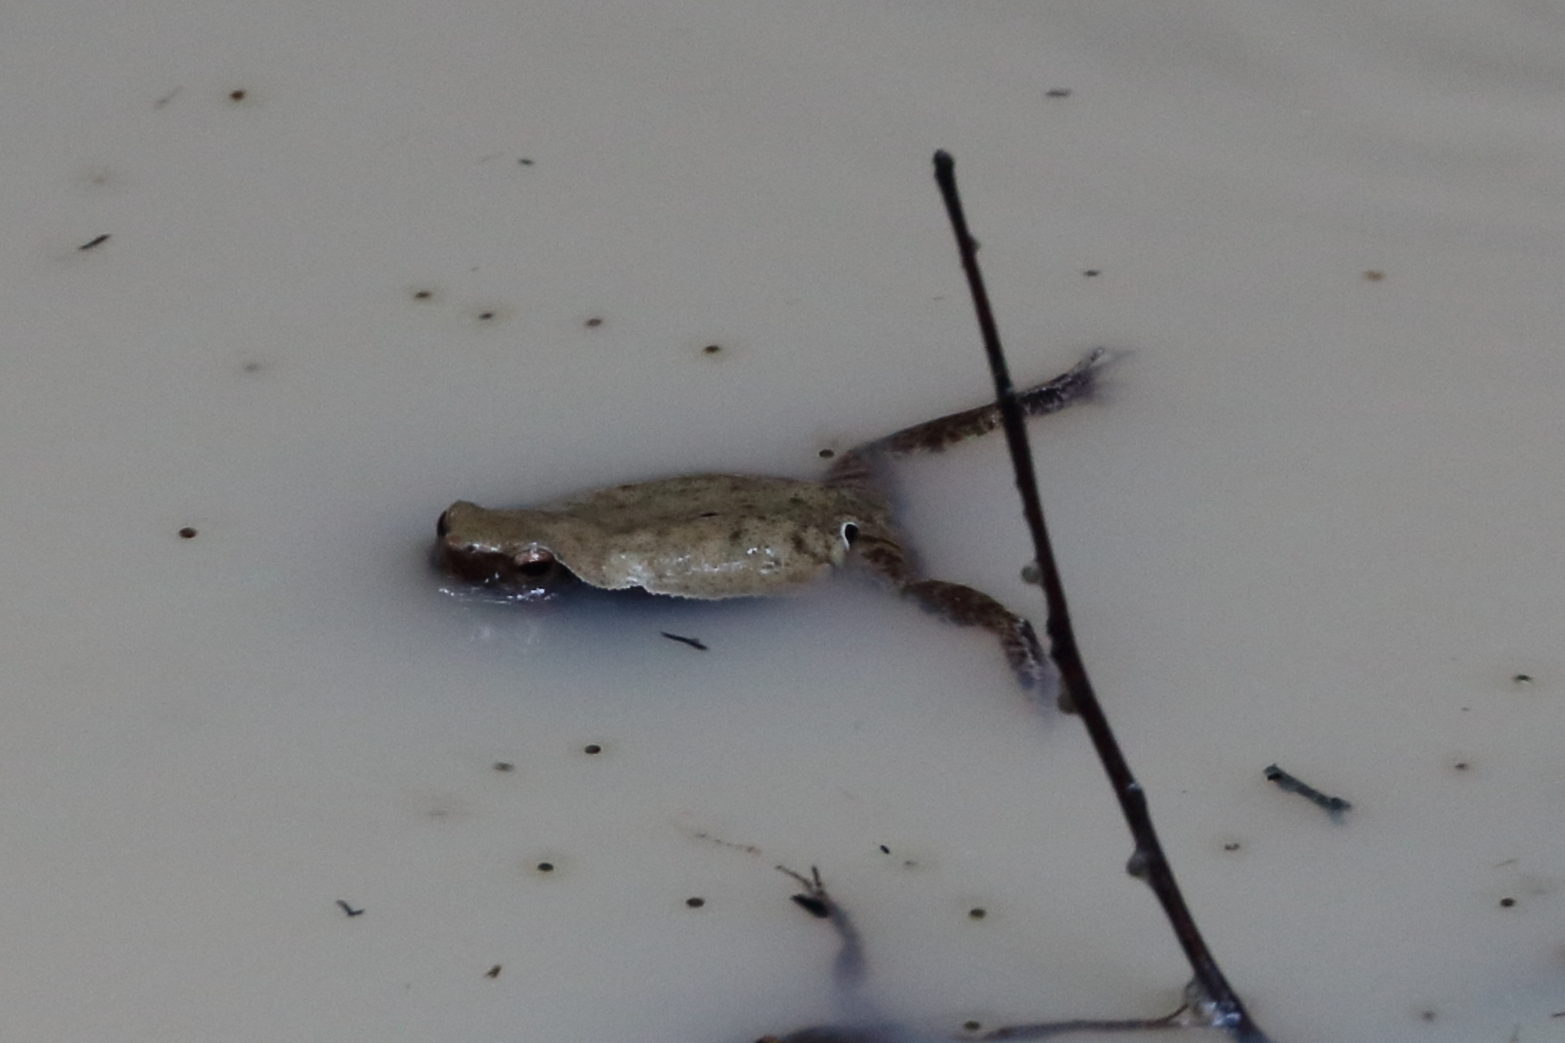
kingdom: Animalia
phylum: Chordata
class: Amphibia
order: Anura
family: Microhylidae
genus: Kalophrynus
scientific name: Kalophrynus interlineatus
